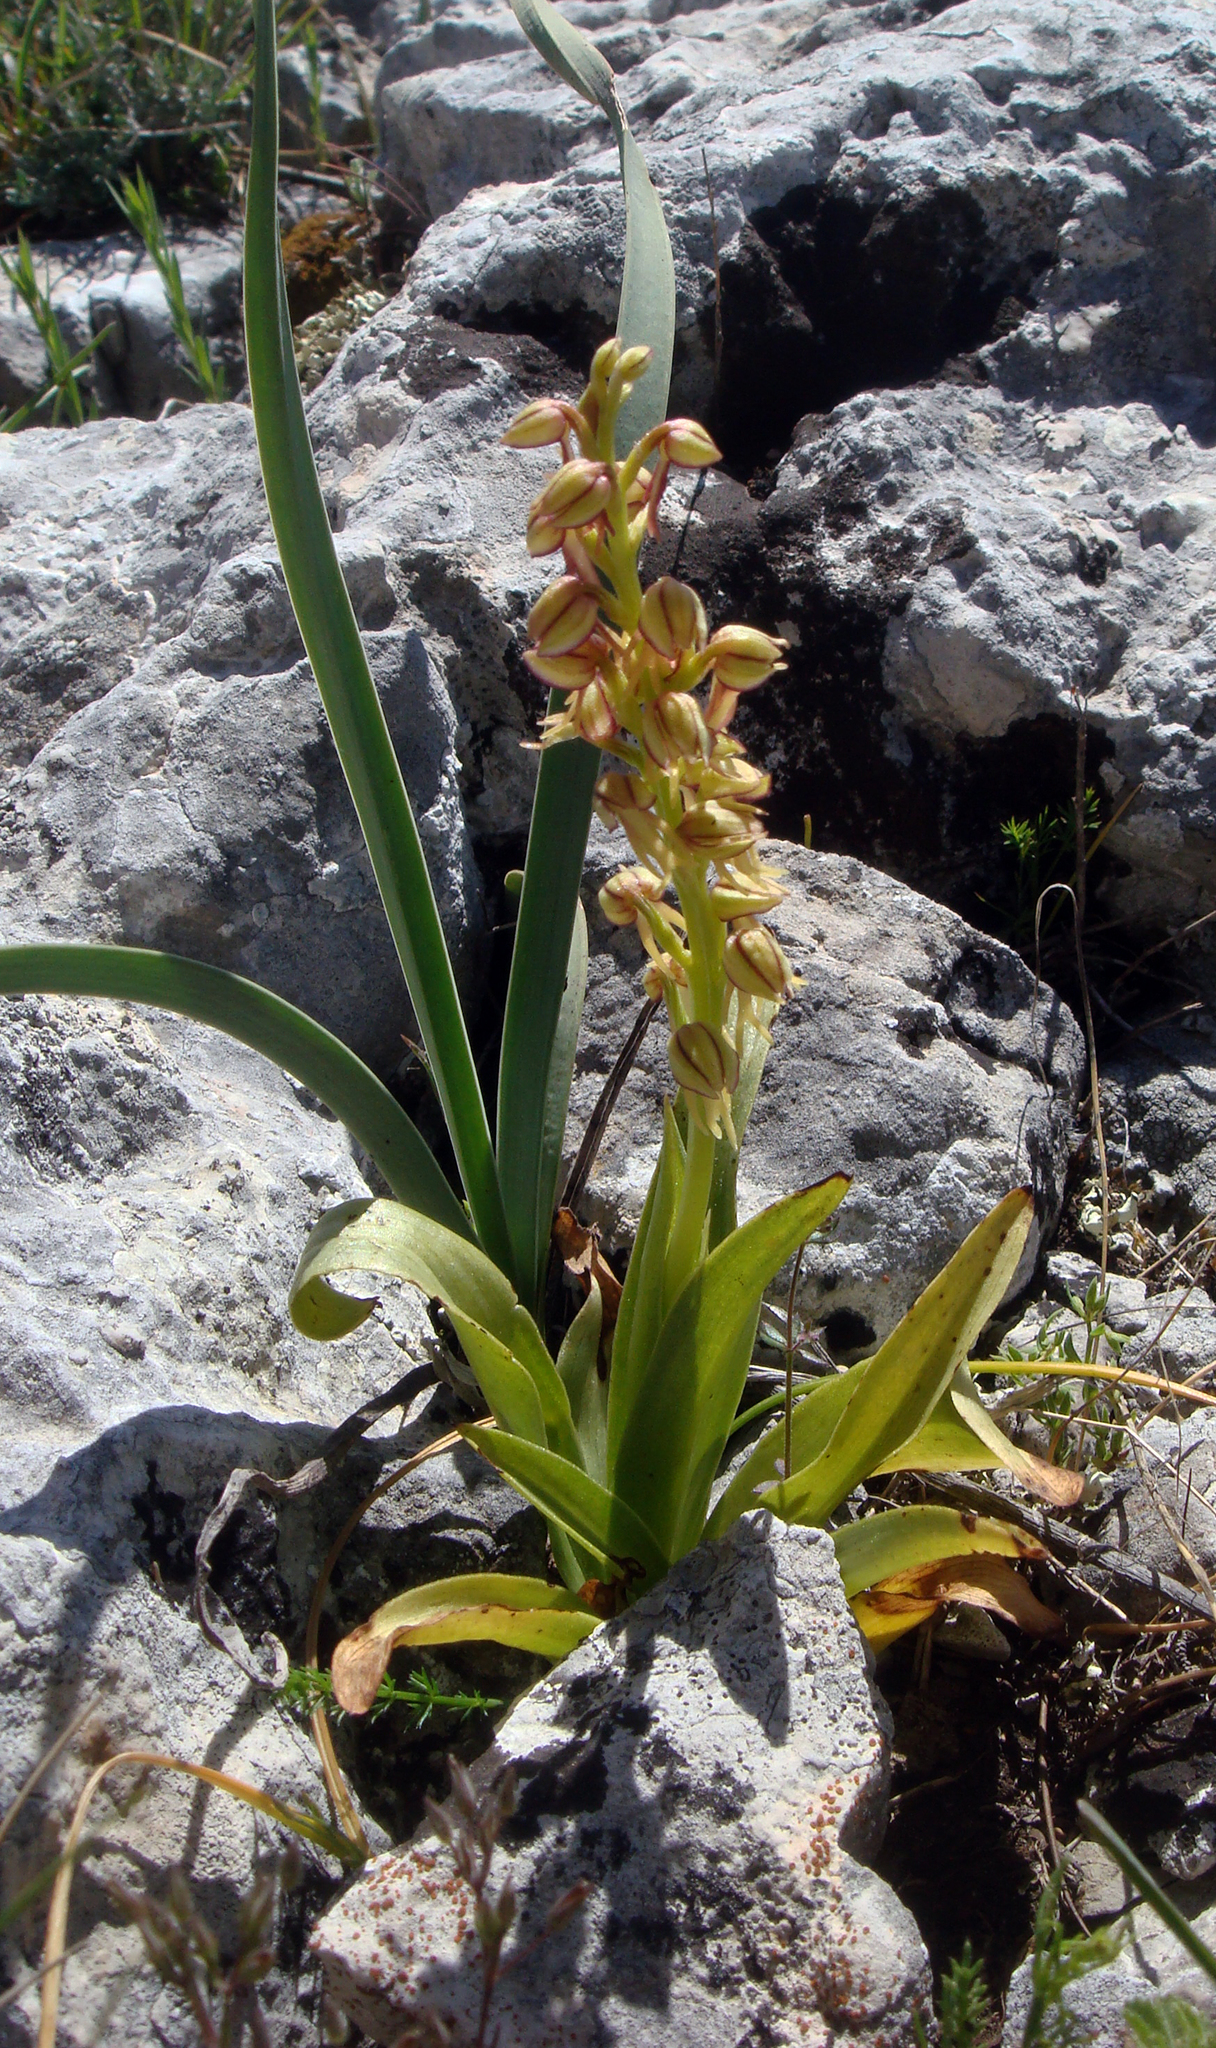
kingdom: Plantae
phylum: Tracheophyta
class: Liliopsida
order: Asparagales
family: Orchidaceae
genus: Orchis
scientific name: Orchis anthropophora
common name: Man orchid
